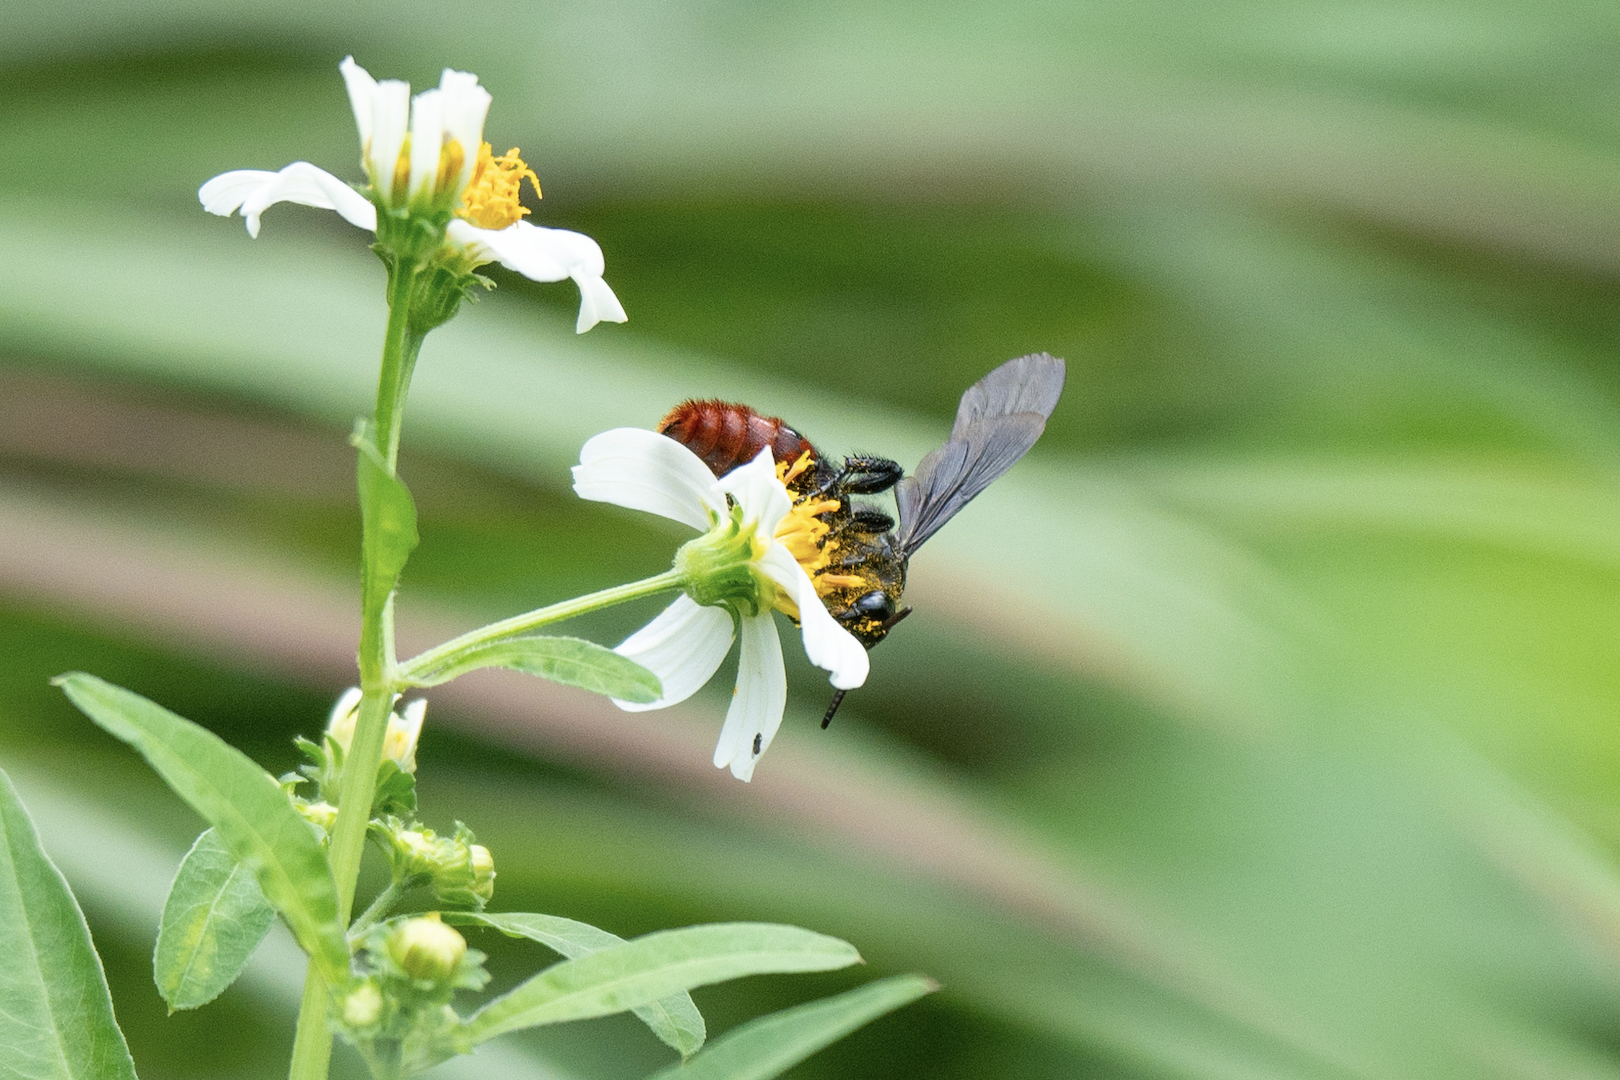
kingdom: Animalia
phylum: Arthropoda
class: Insecta
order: Hymenoptera
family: Scoliidae
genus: Liacos
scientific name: Liacos erythrosoma
